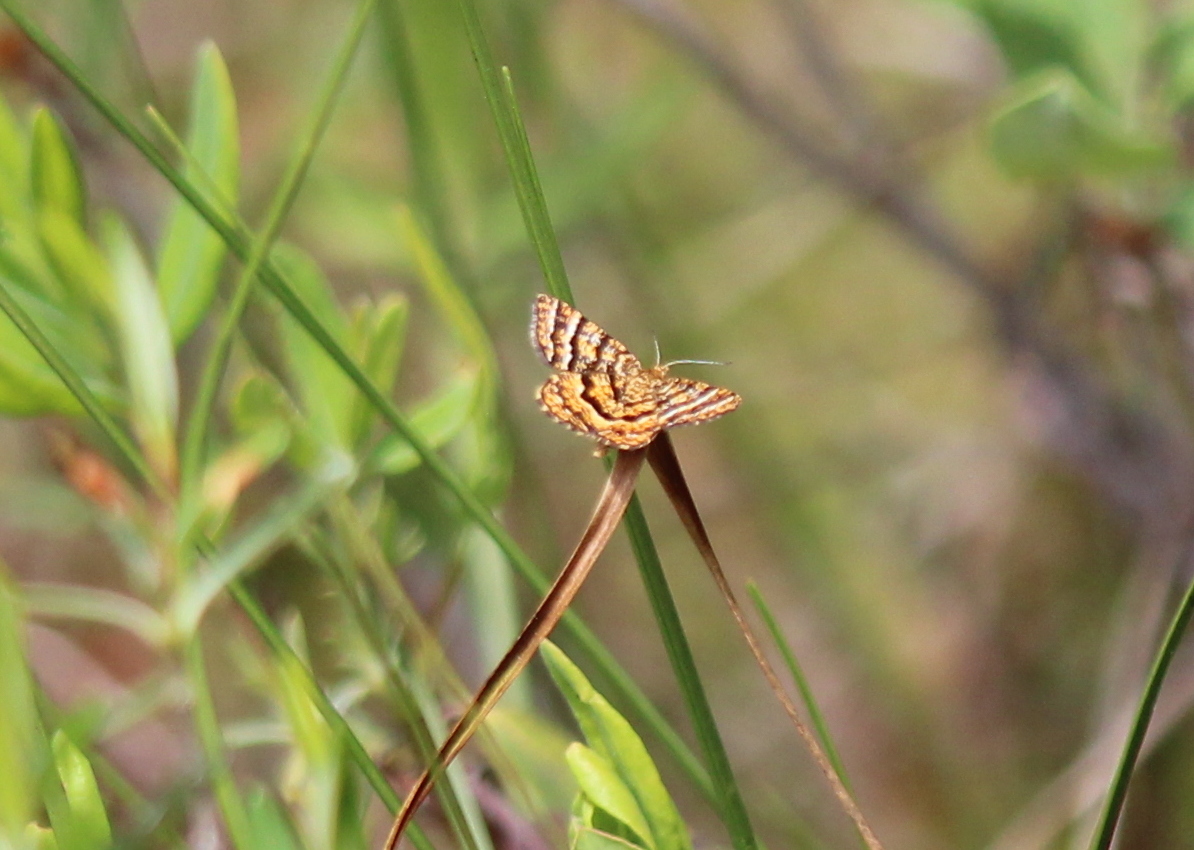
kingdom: Animalia
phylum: Arthropoda
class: Insecta
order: Lepidoptera
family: Geometridae
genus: Macaria
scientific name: Macaria truncataria
